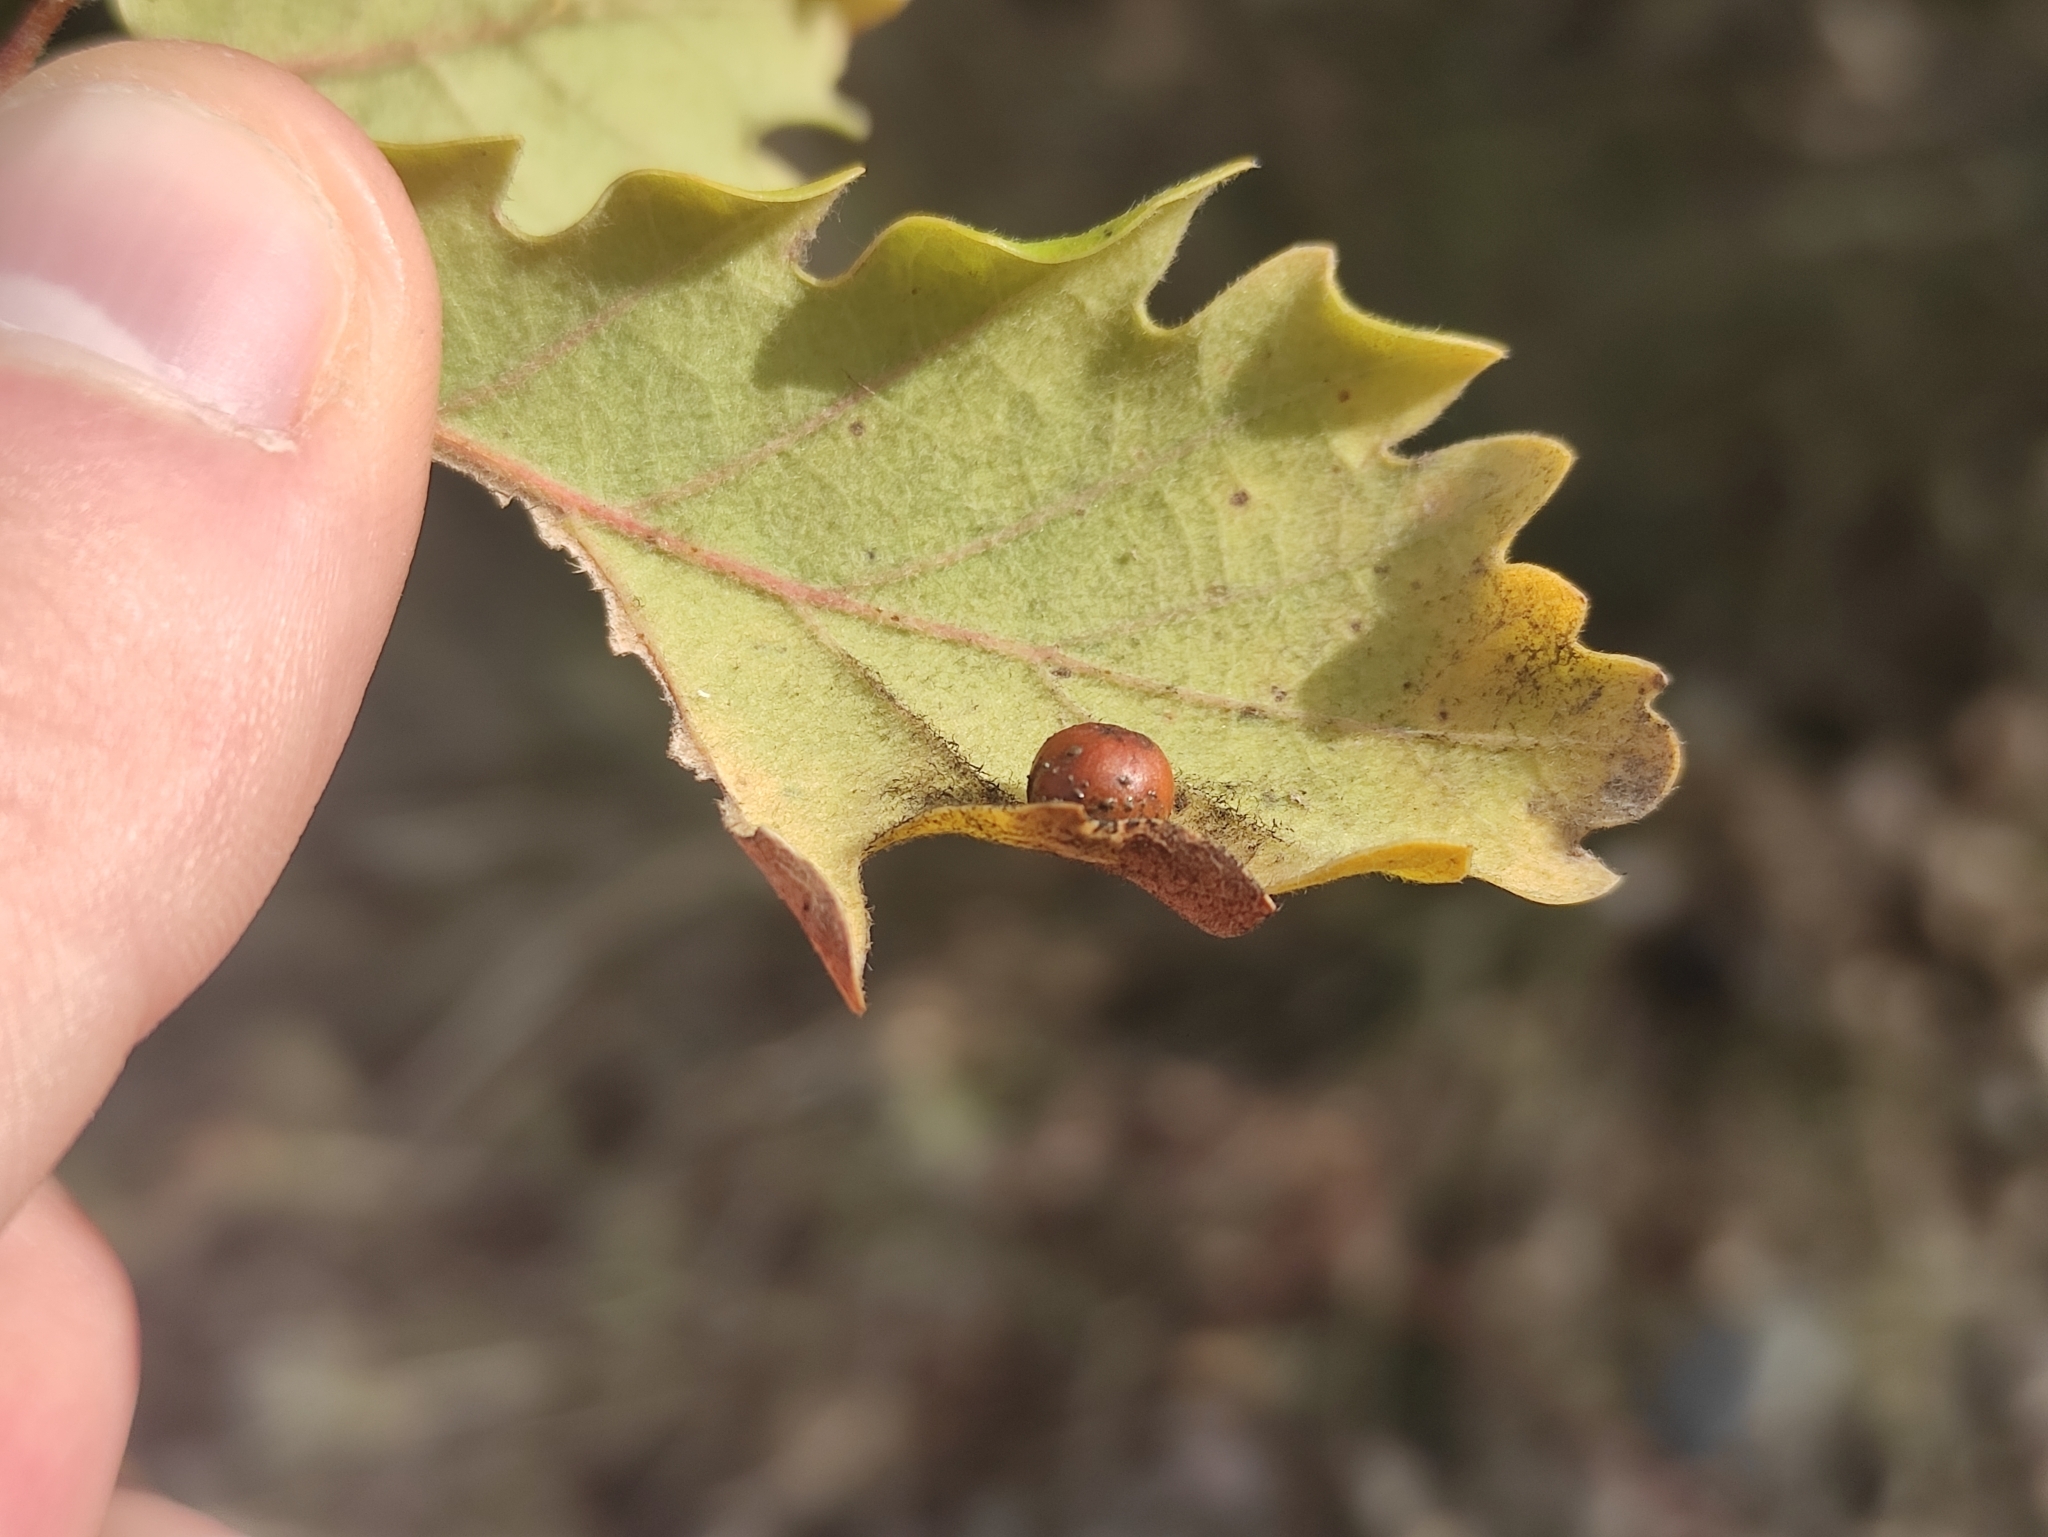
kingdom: Animalia
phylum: Arthropoda
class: Insecta
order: Hymenoptera
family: Cynipidae
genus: Cynips
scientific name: Cynips divisa
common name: Red currant gall
